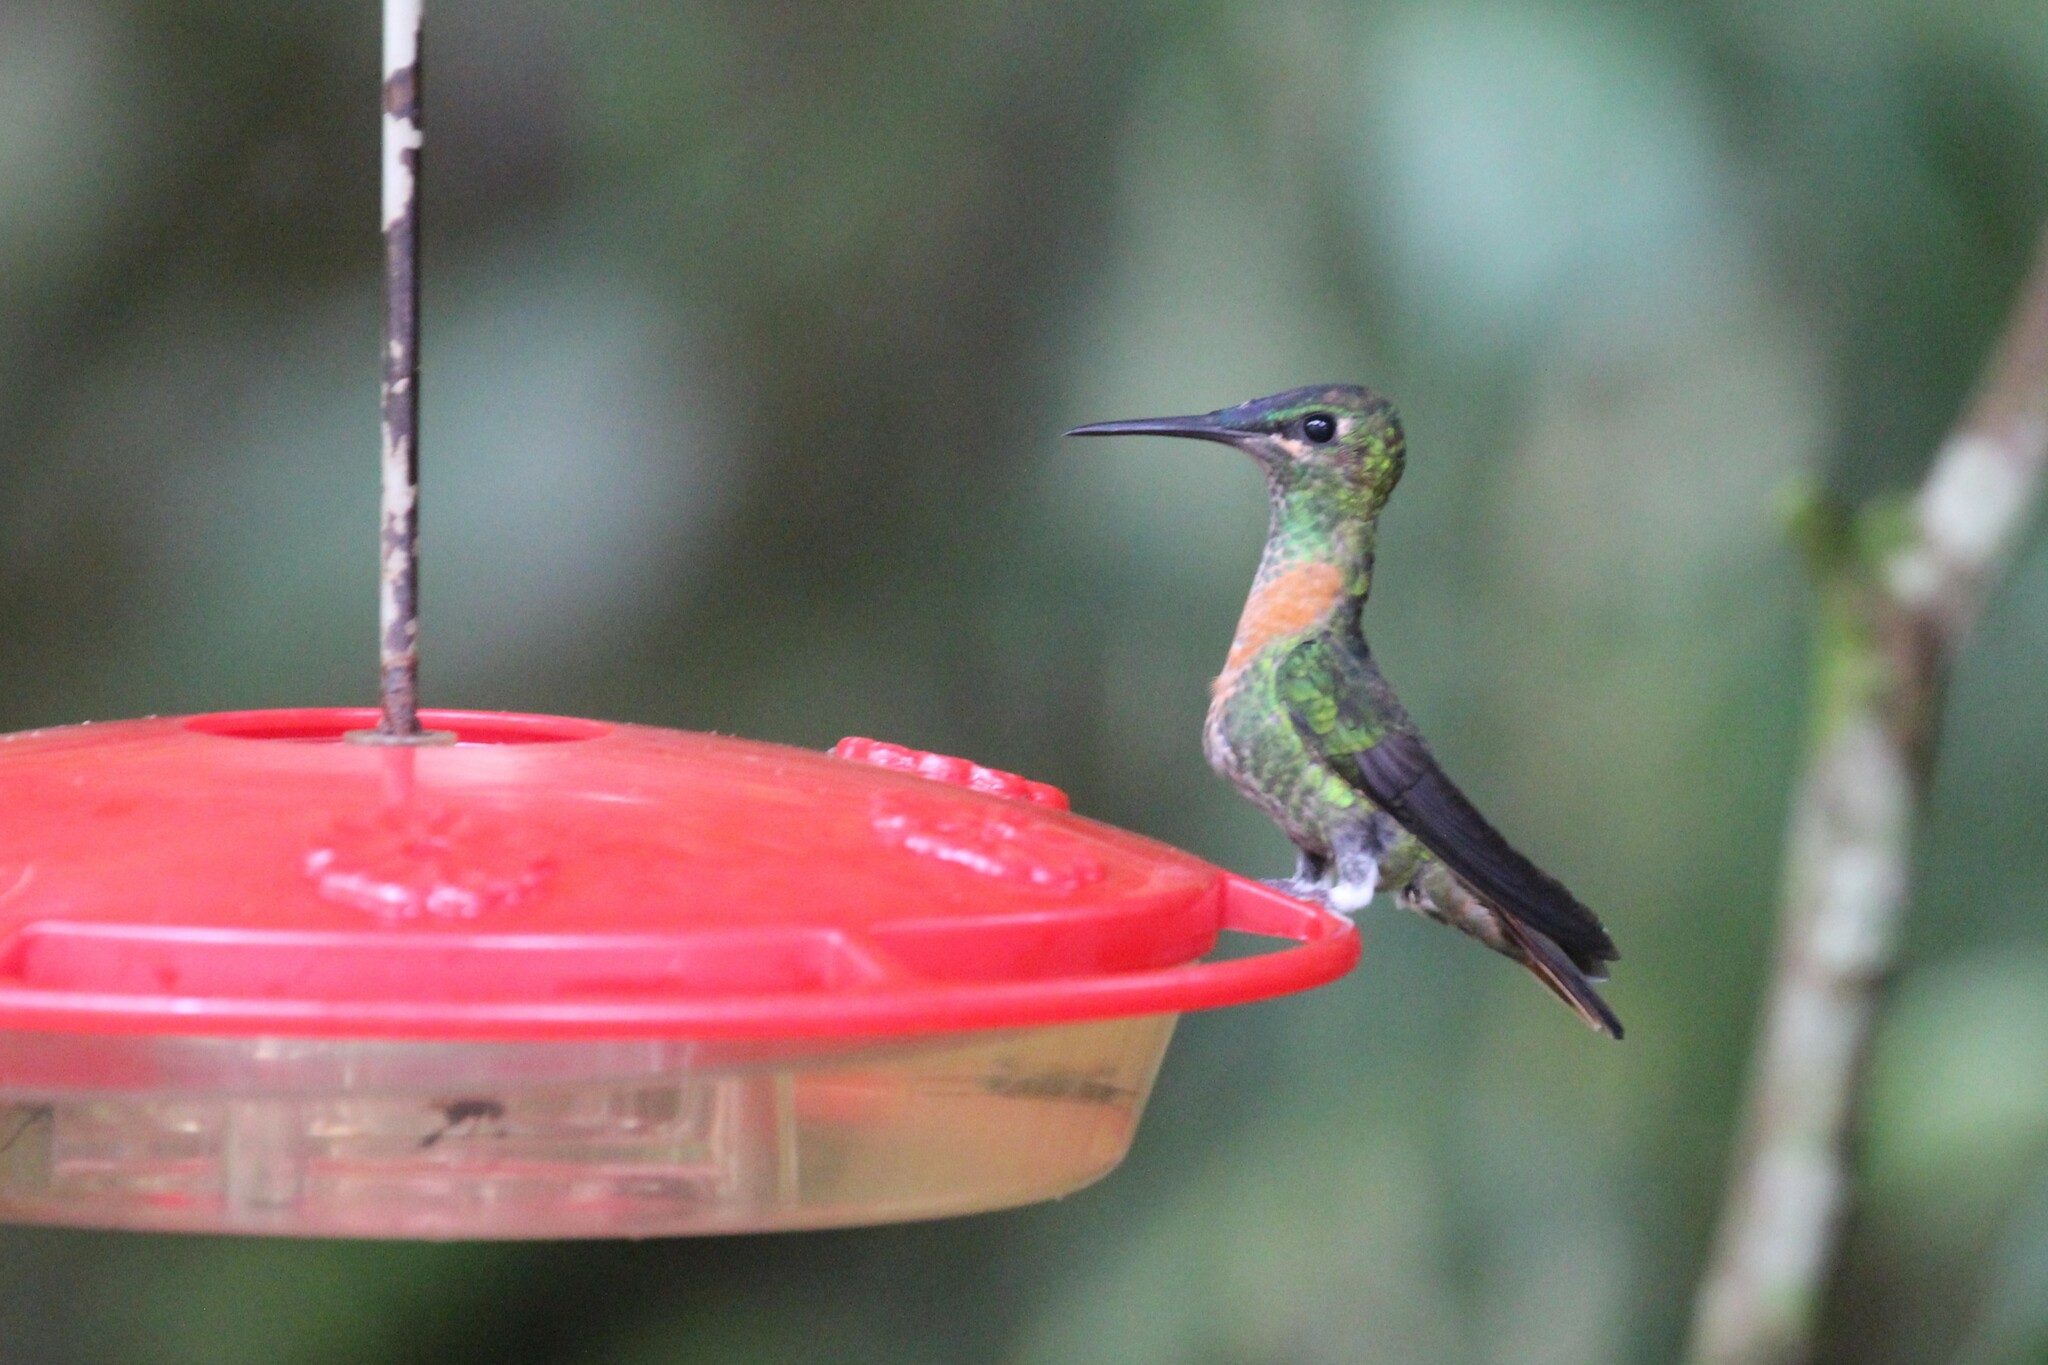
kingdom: Animalia
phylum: Chordata
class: Aves
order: Apodiformes
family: Trochilidae
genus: Heliodoxa
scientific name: Heliodoxa aurescens
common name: Gould's jewelfront
